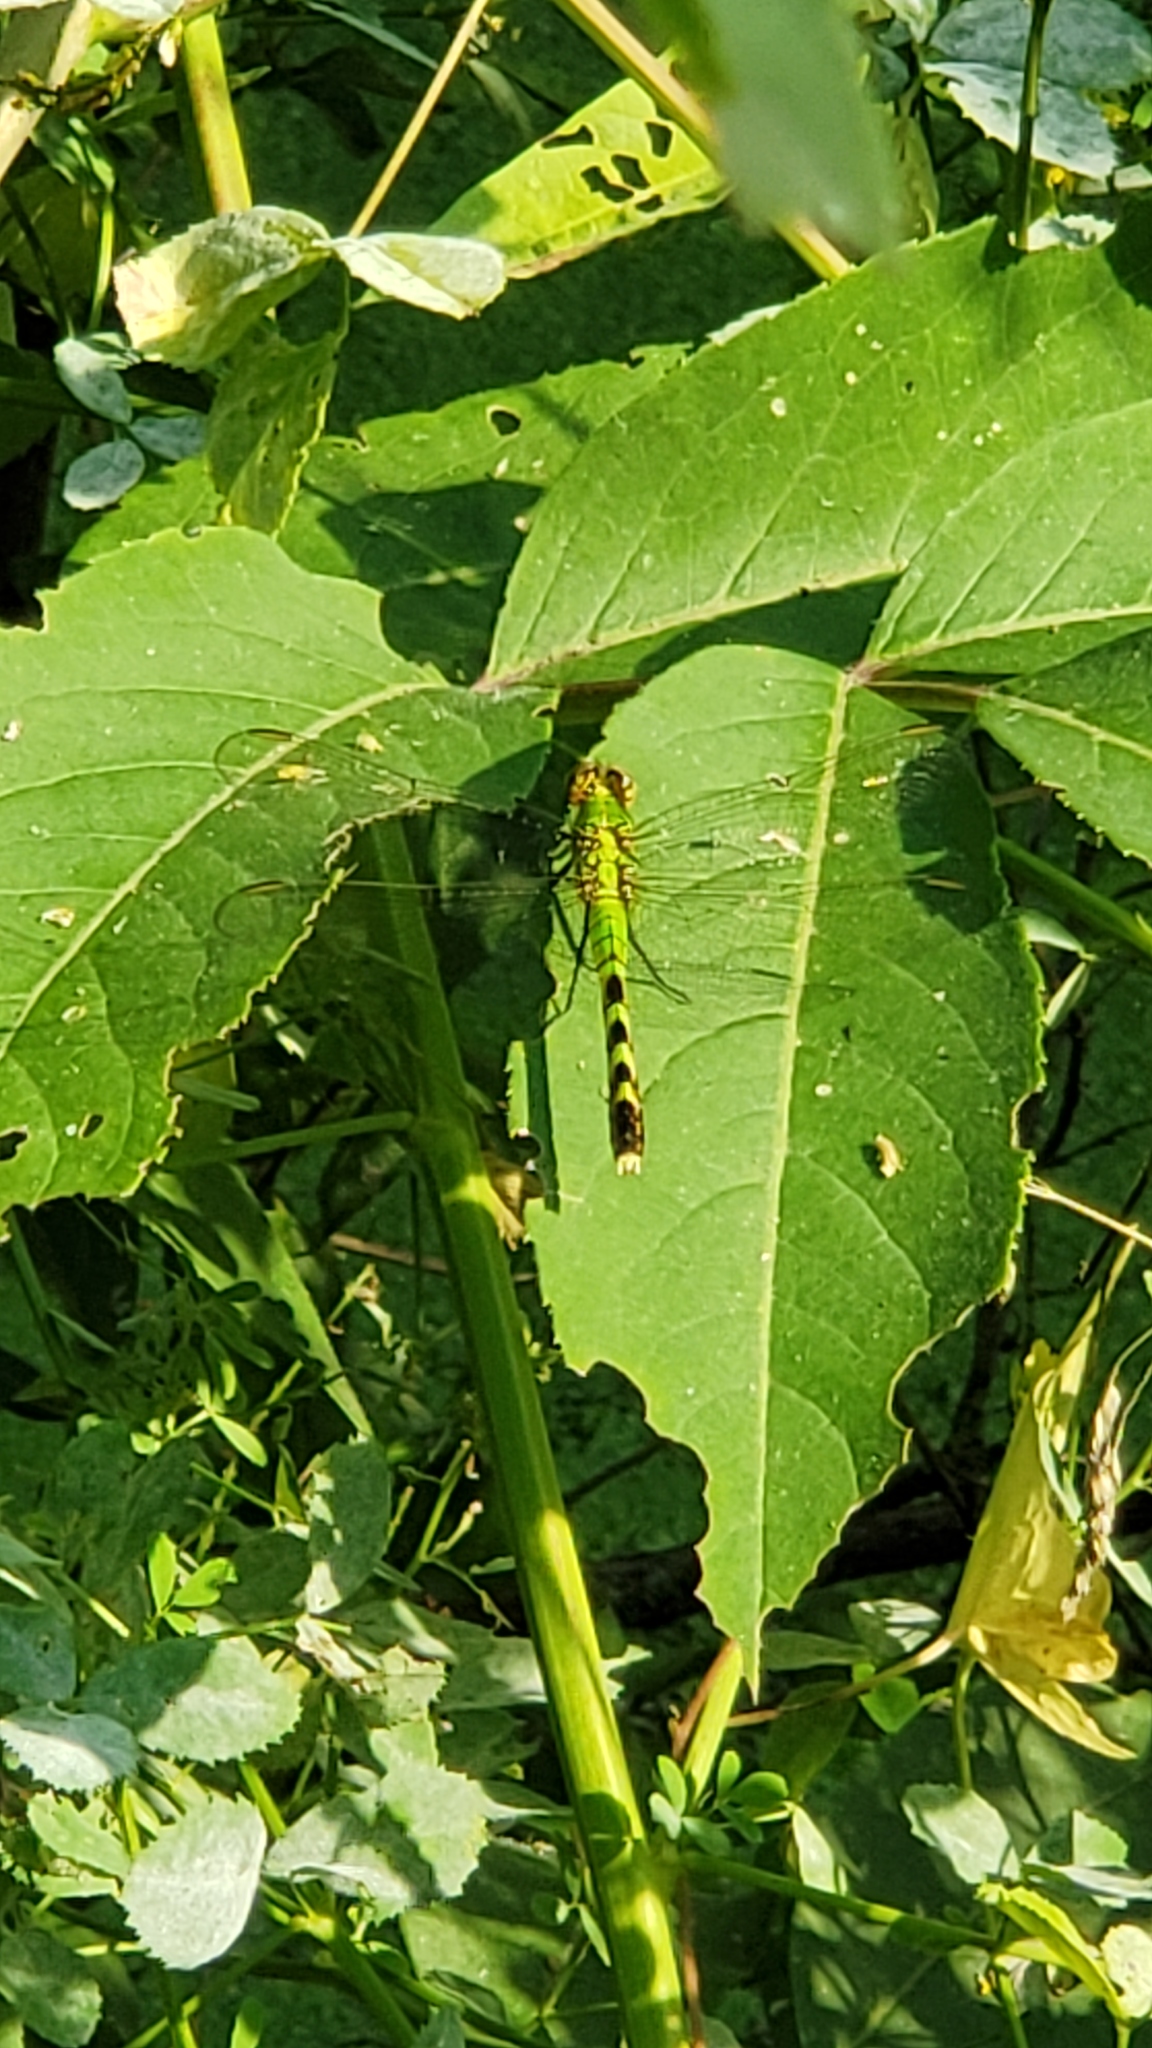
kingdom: Animalia
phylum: Arthropoda
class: Insecta
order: Odonata
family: Libellulidae
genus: Erythemis
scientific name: Erythemis simplicicollis
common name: Eastern pondhawk
